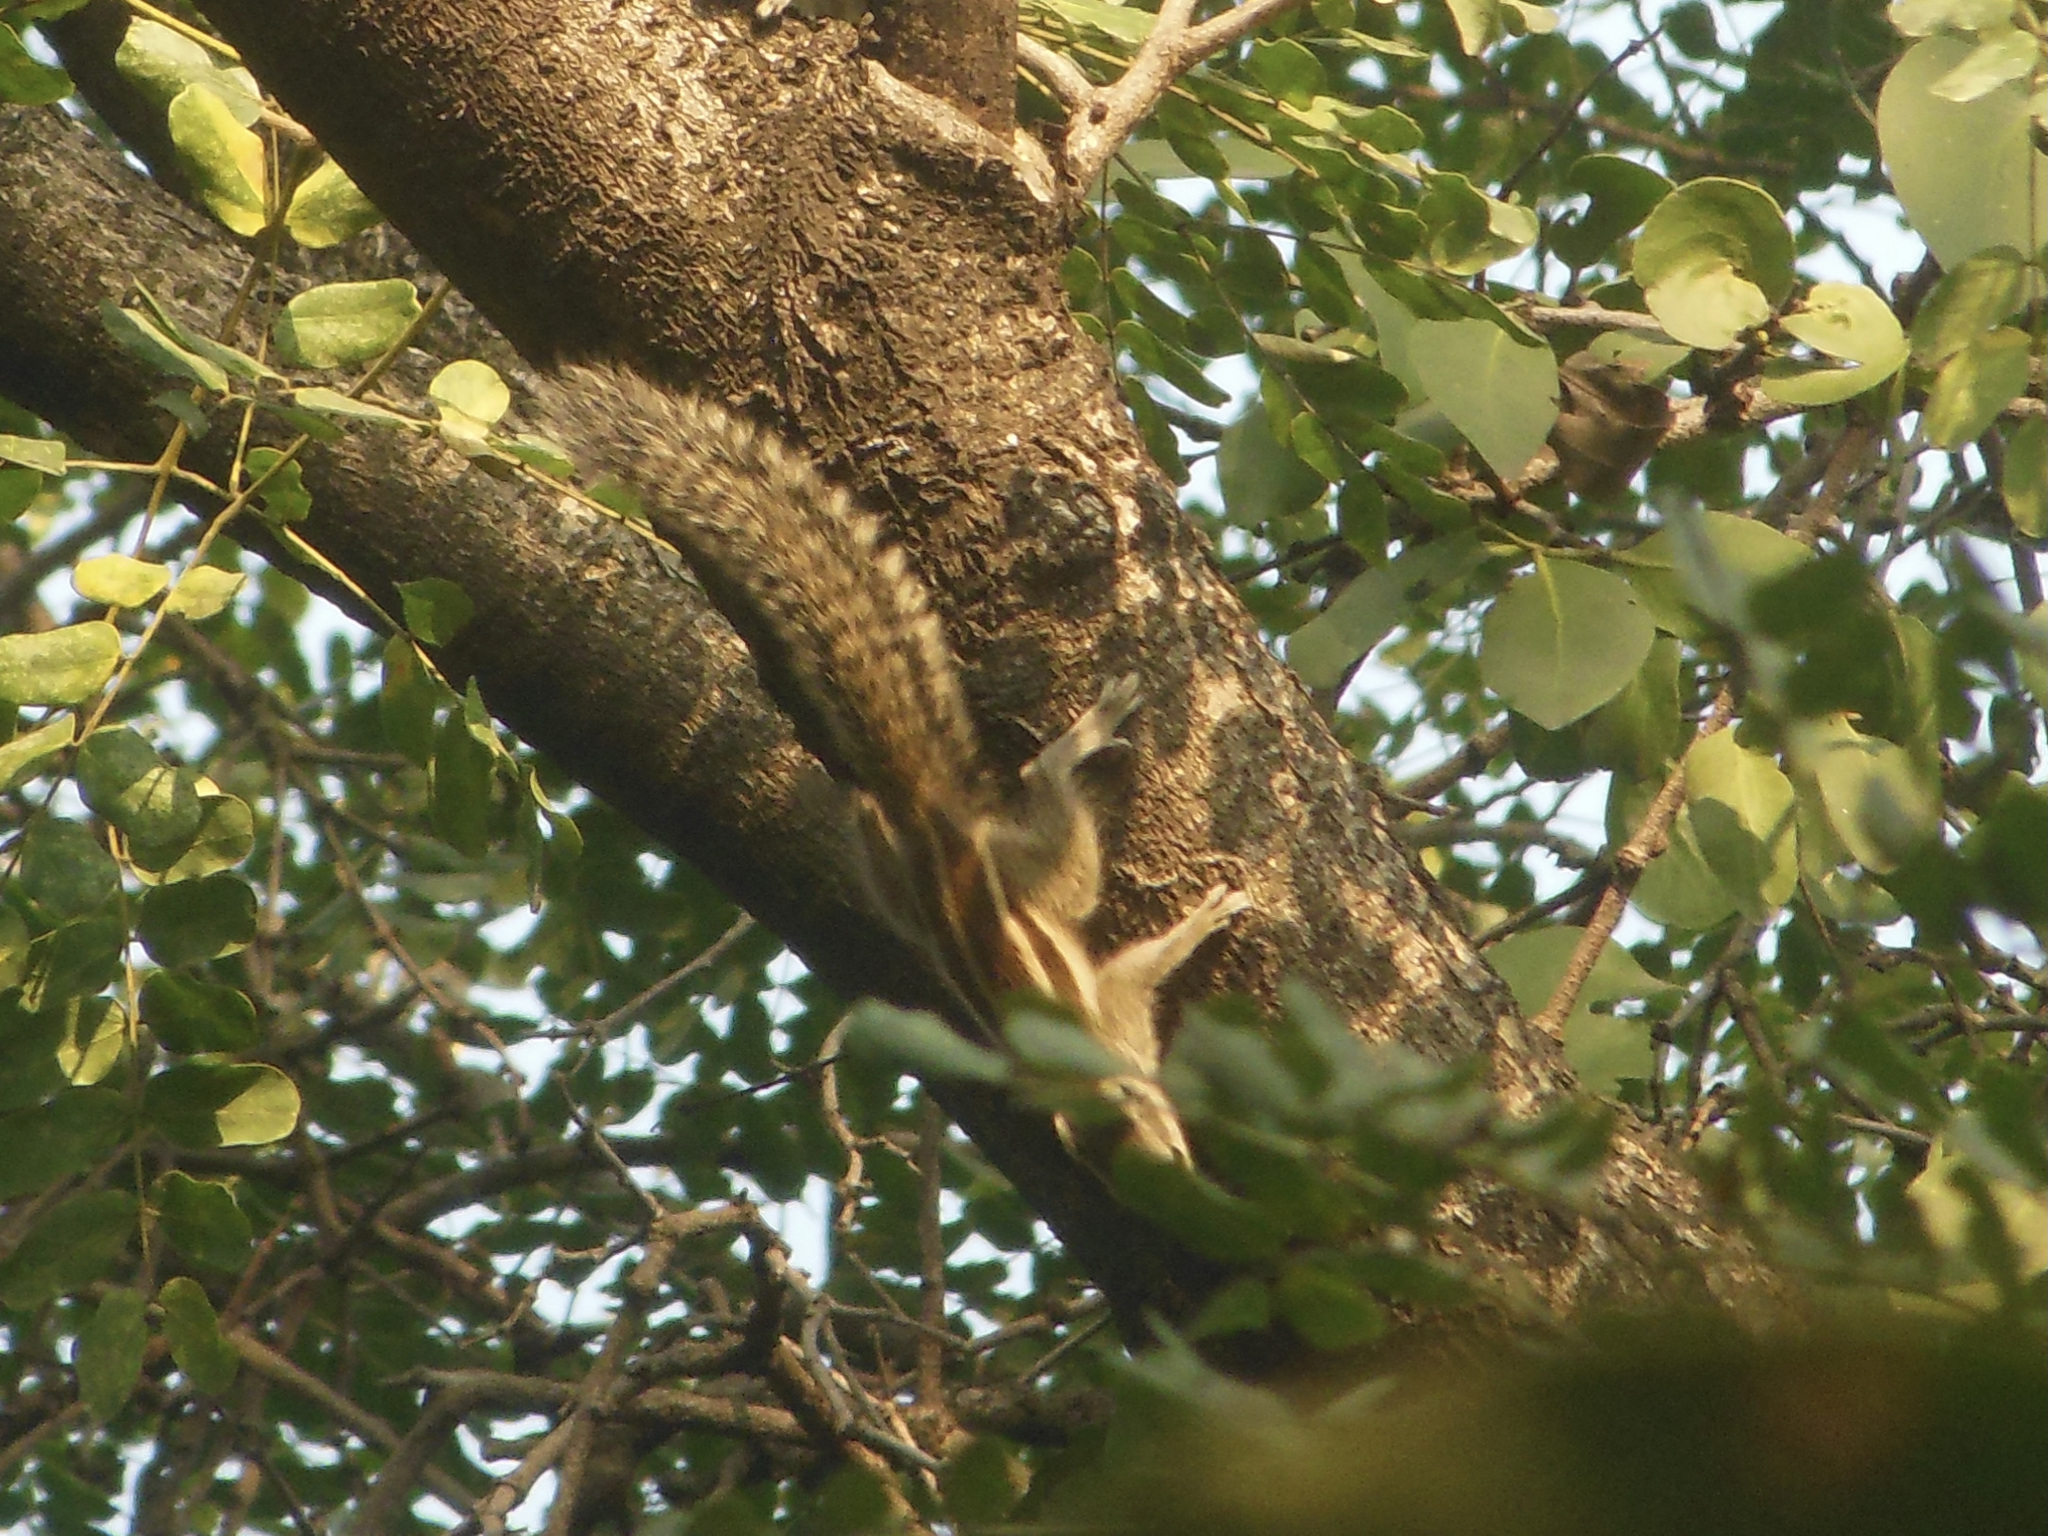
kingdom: Animalia
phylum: Chordata
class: Mammalia
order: Rodentia
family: Sciuridae
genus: Funambulus
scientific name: Funambulus pennantii
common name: Northern palm squirrel
